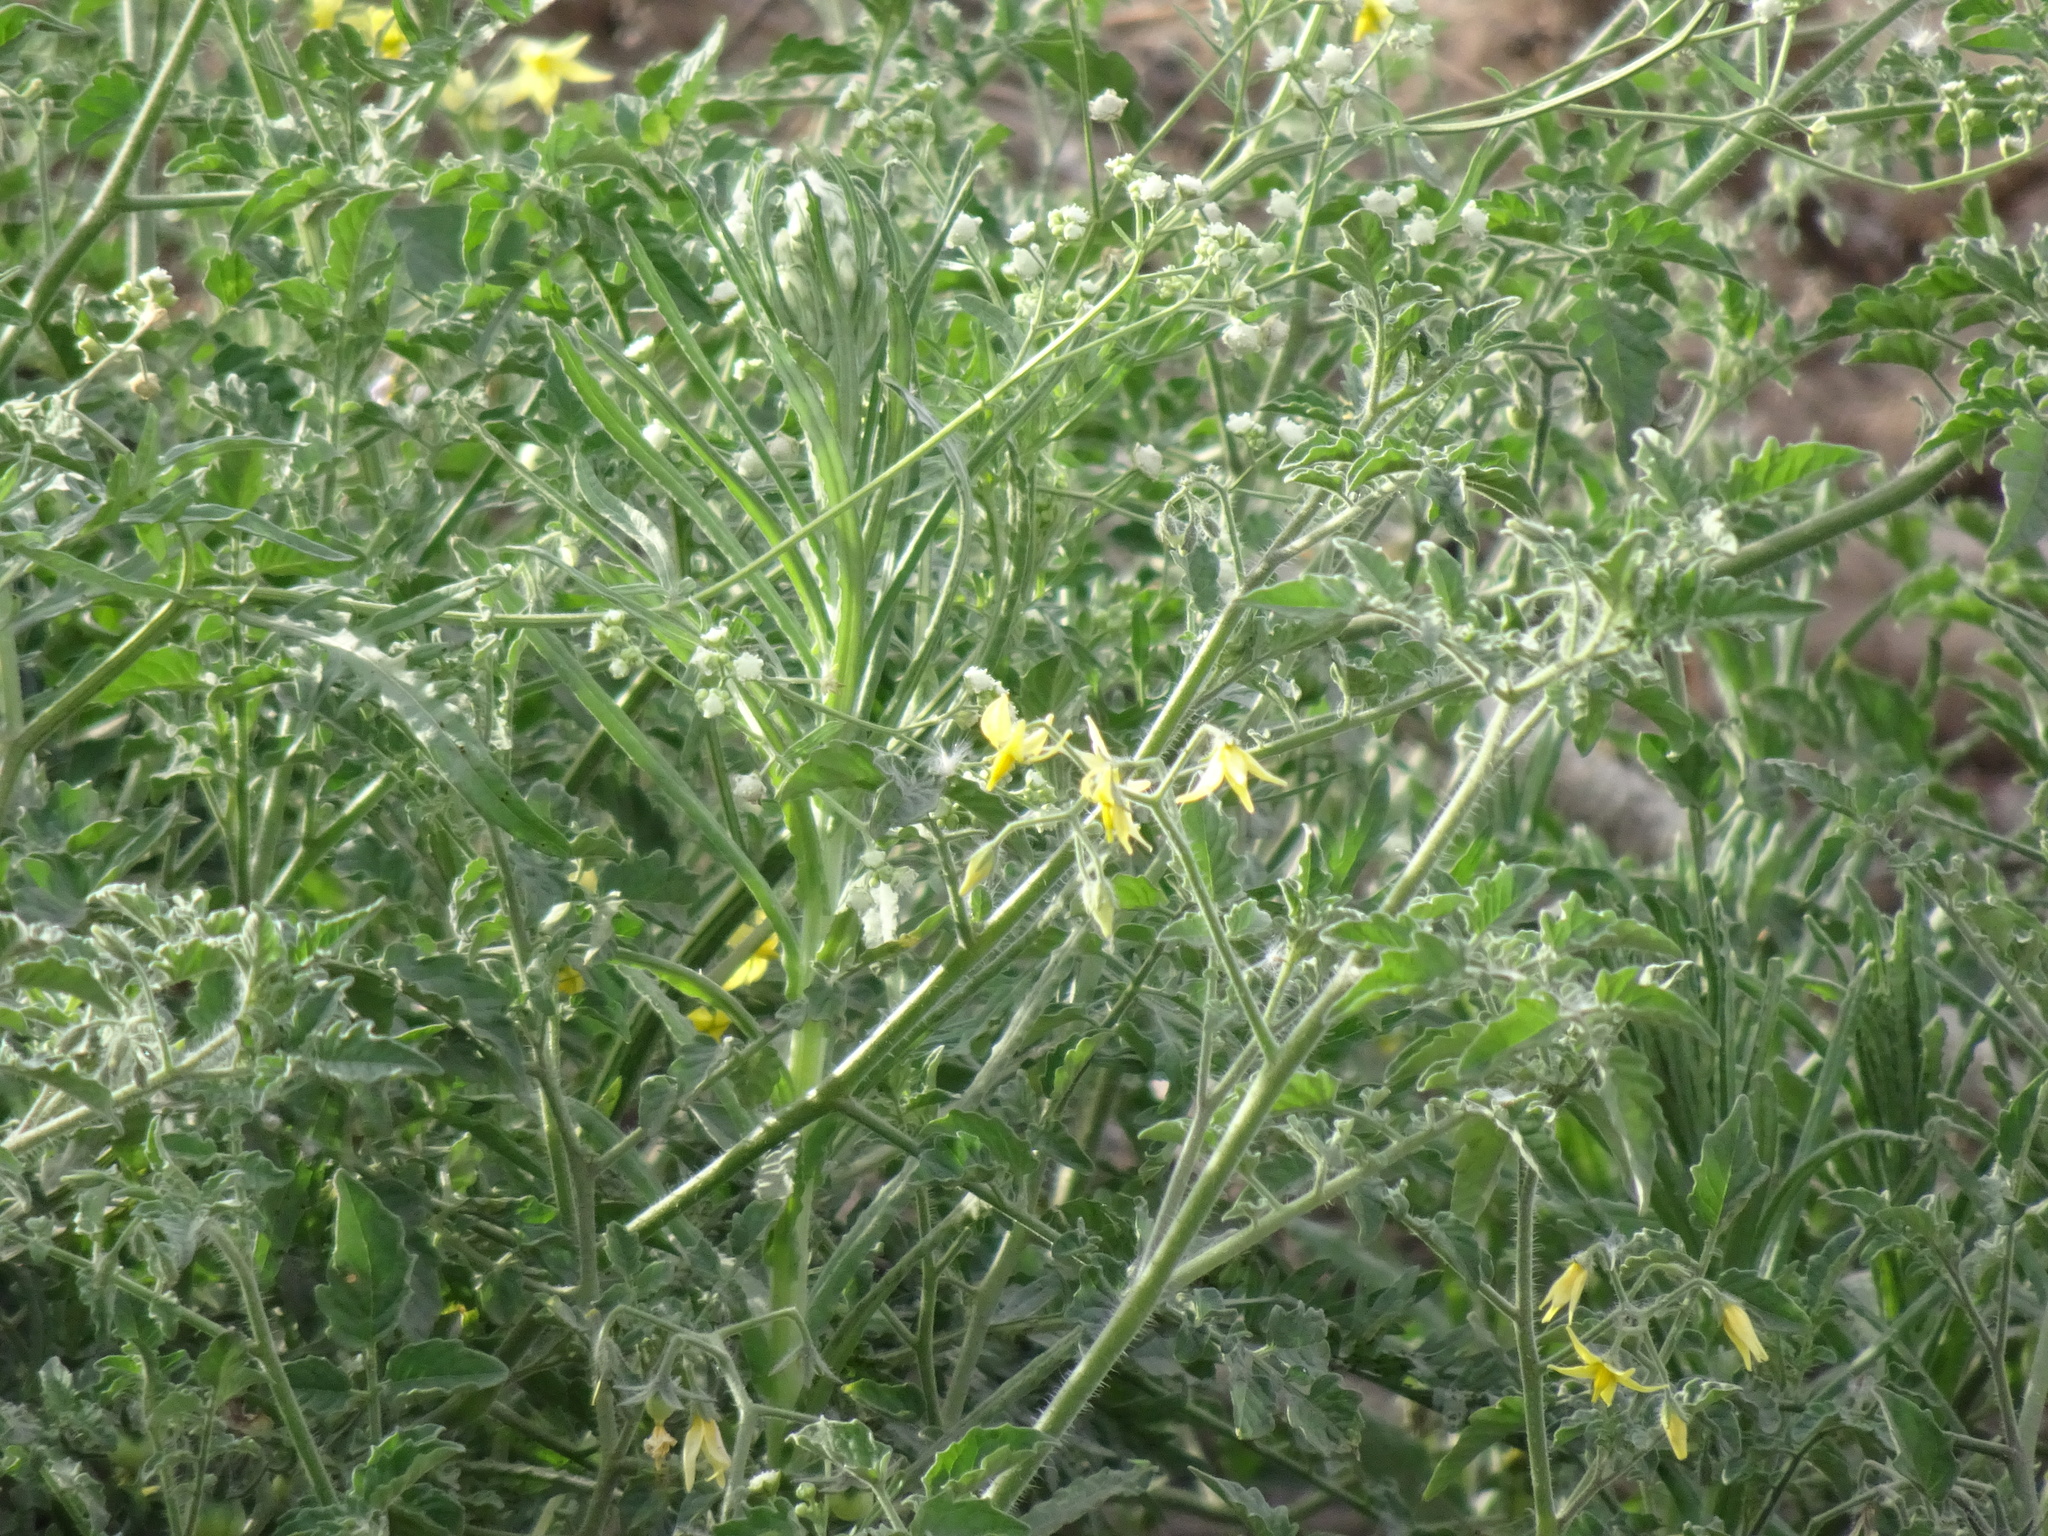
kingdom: Plantae
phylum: Tracheophyta
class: Magnoliopsida
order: Solanales
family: Solanaceae
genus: Solanum
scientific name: Solanum lycopersicum
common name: Garden tomato
